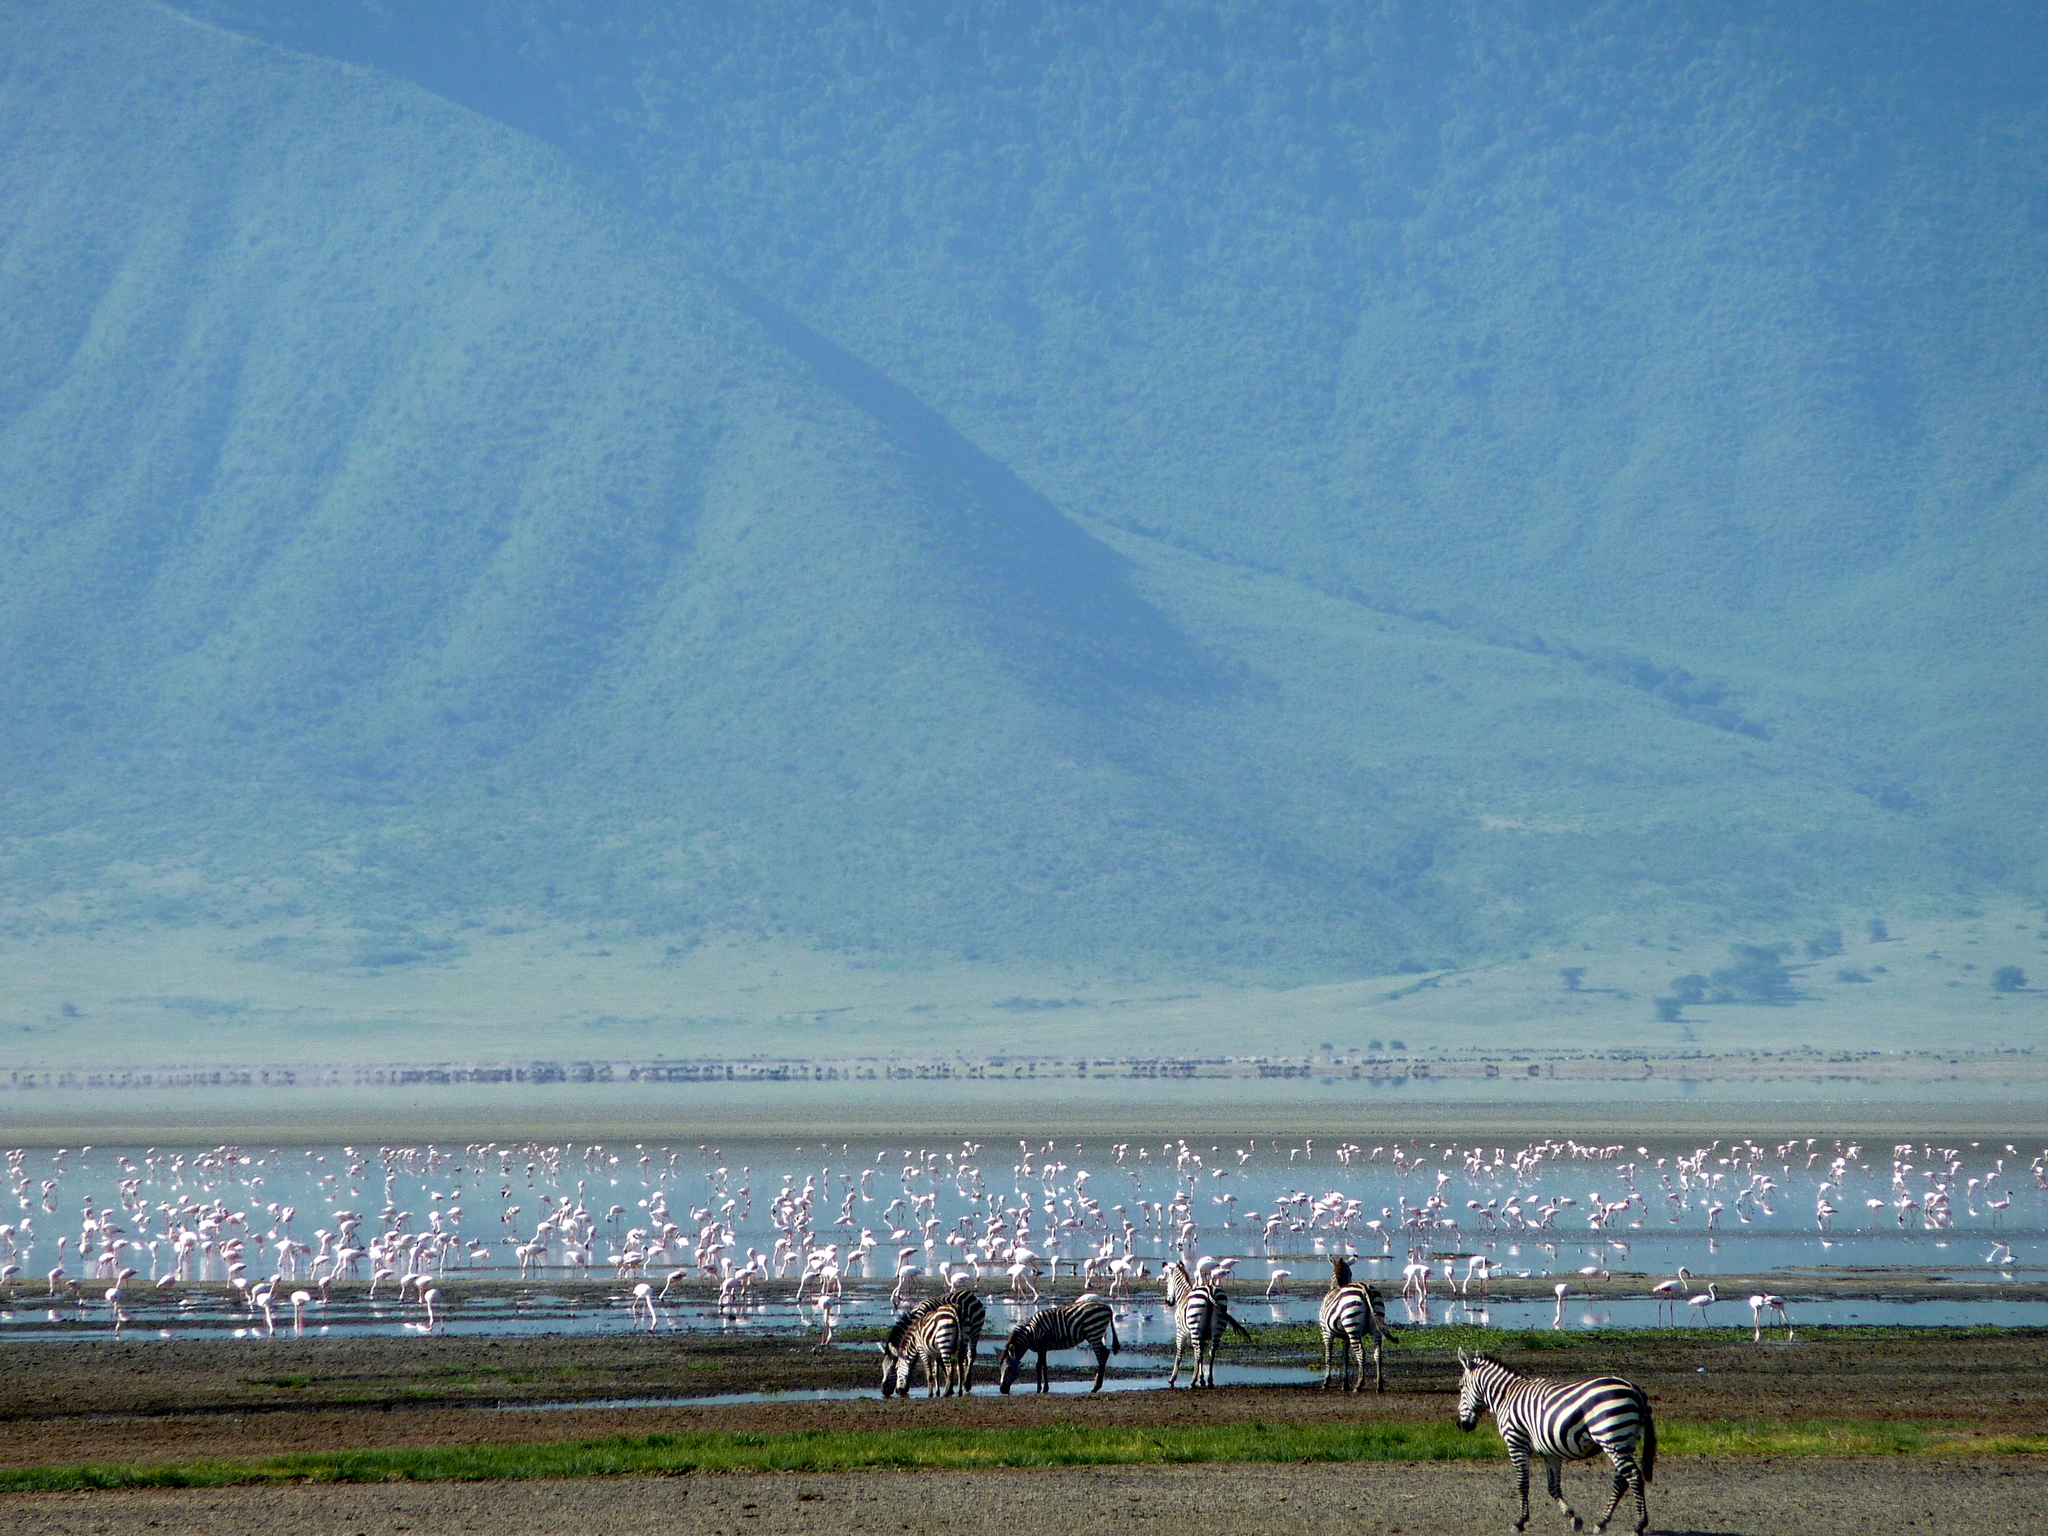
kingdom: Animalia
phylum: Chordata
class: Aves
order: Phoenicopteriformes
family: Phoenicopteridae
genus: Phoeniconaias
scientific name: Phoeniconaias minor
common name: Lesser flamingo
